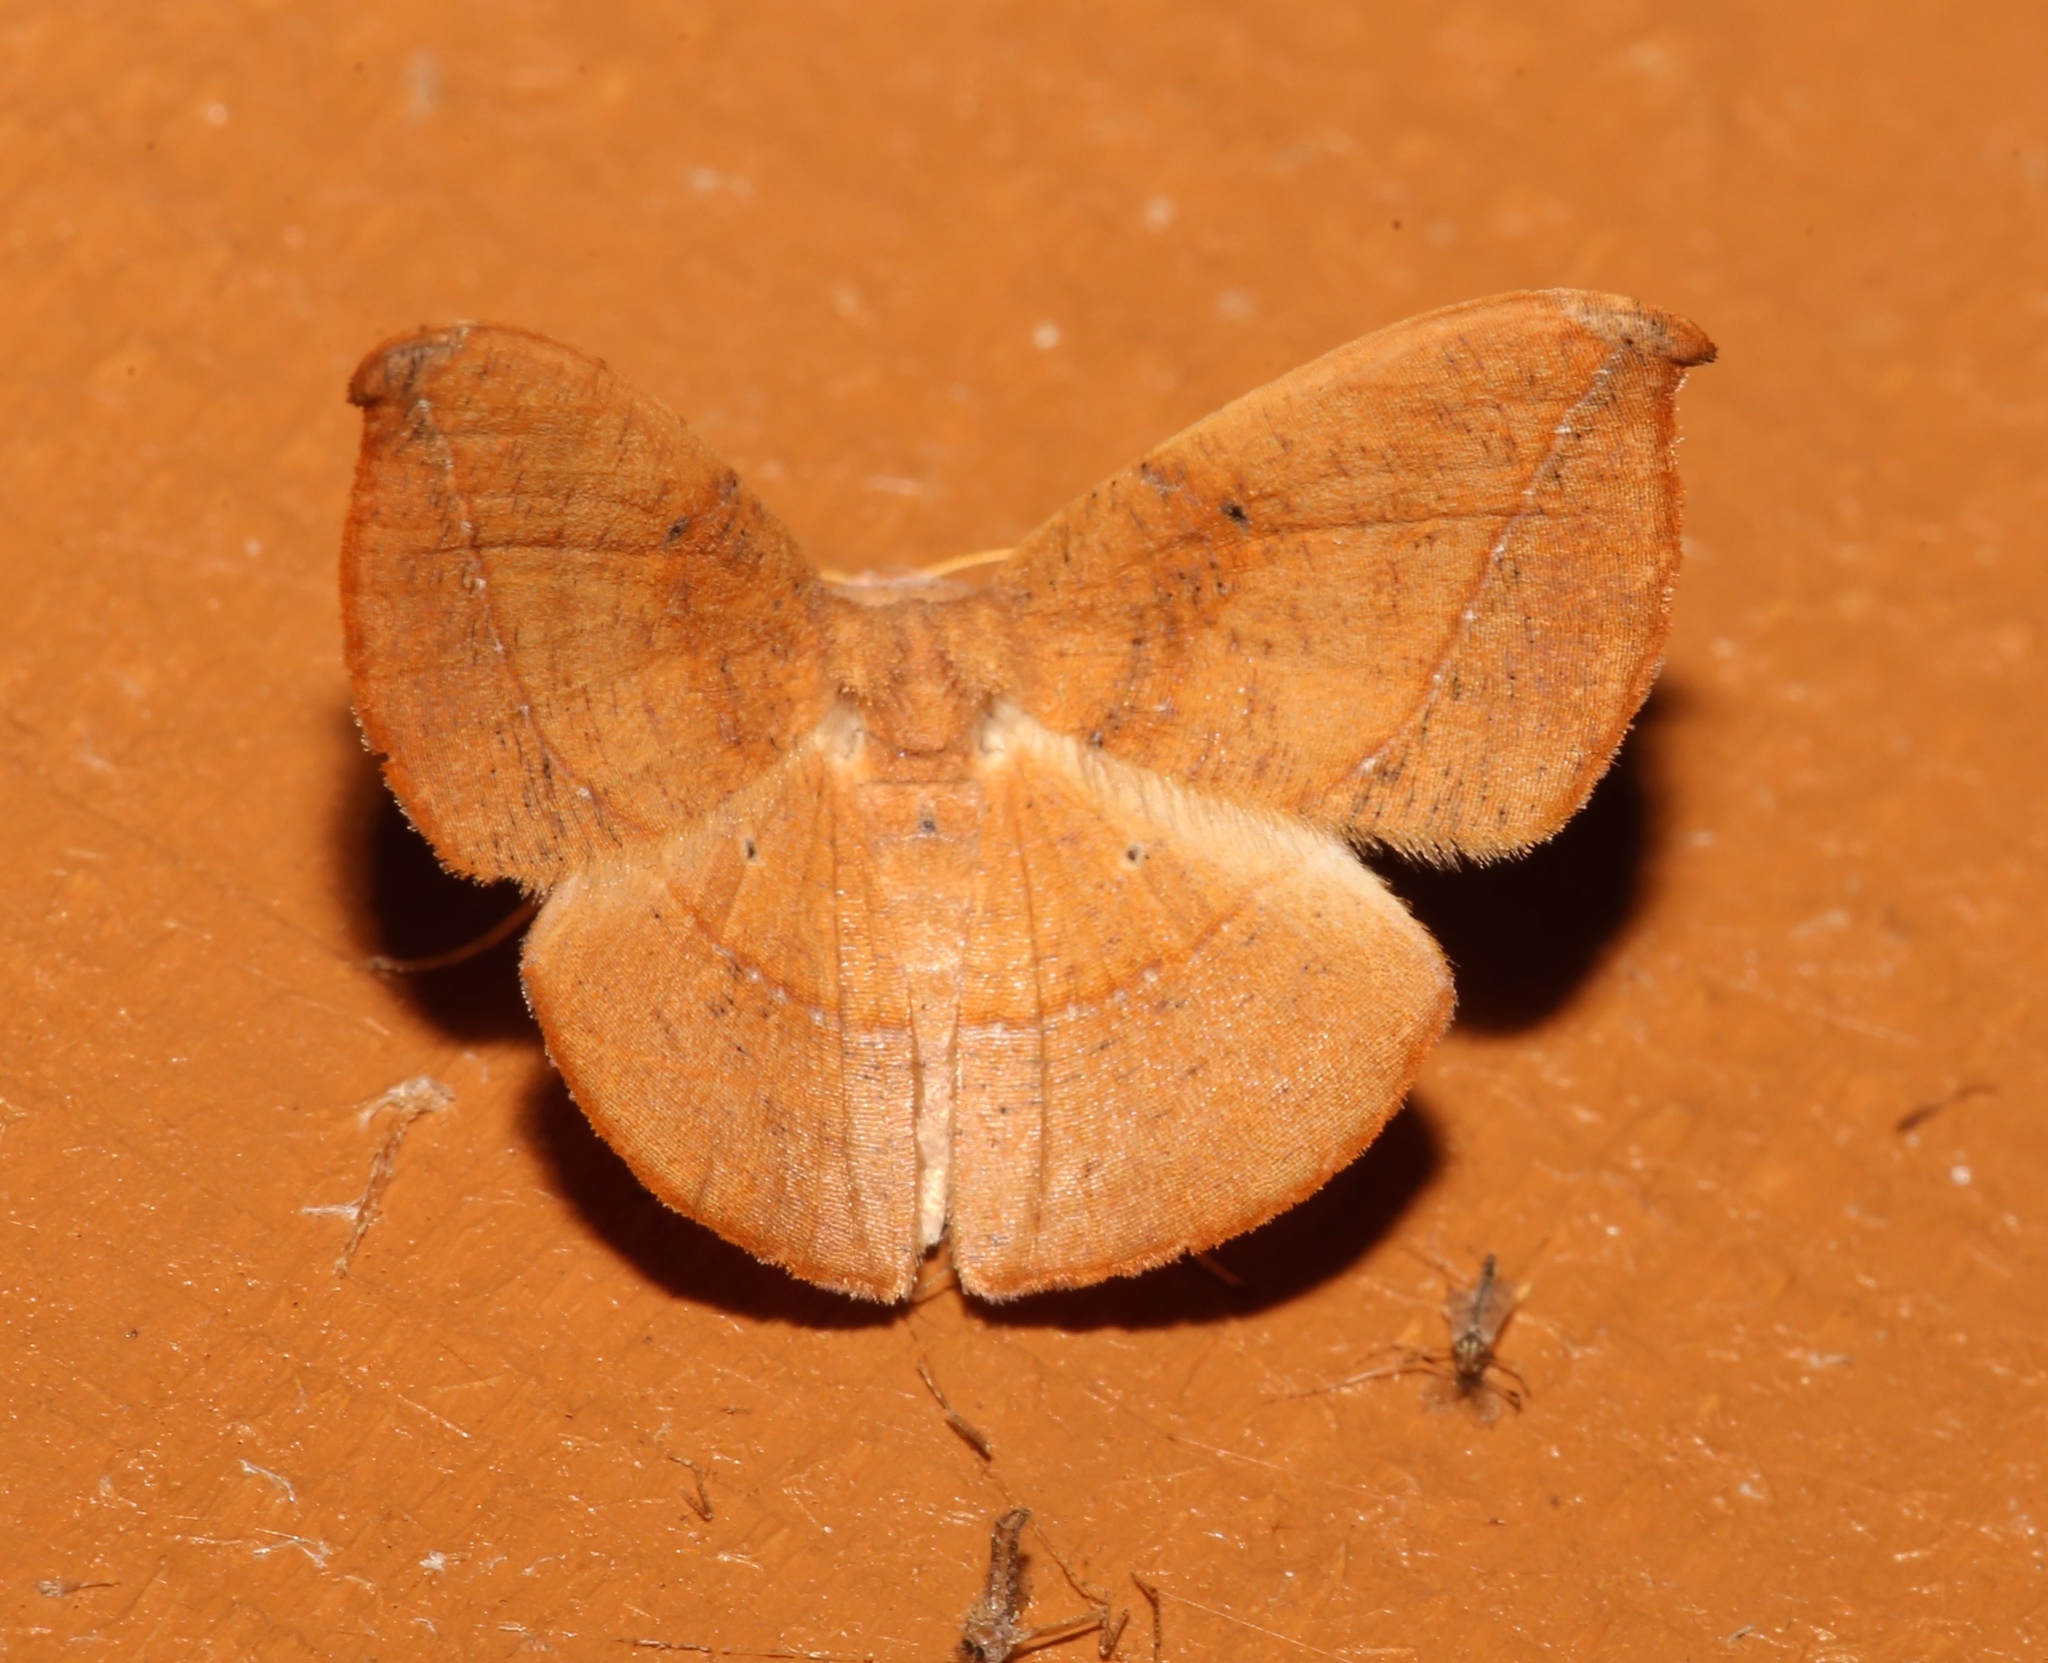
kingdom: Animalia
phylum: Arthropoda
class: Insecta
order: Lepidoptera
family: Geometridae
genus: Patalene
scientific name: Patalene olyzonaria
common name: Juniper geometer moth
